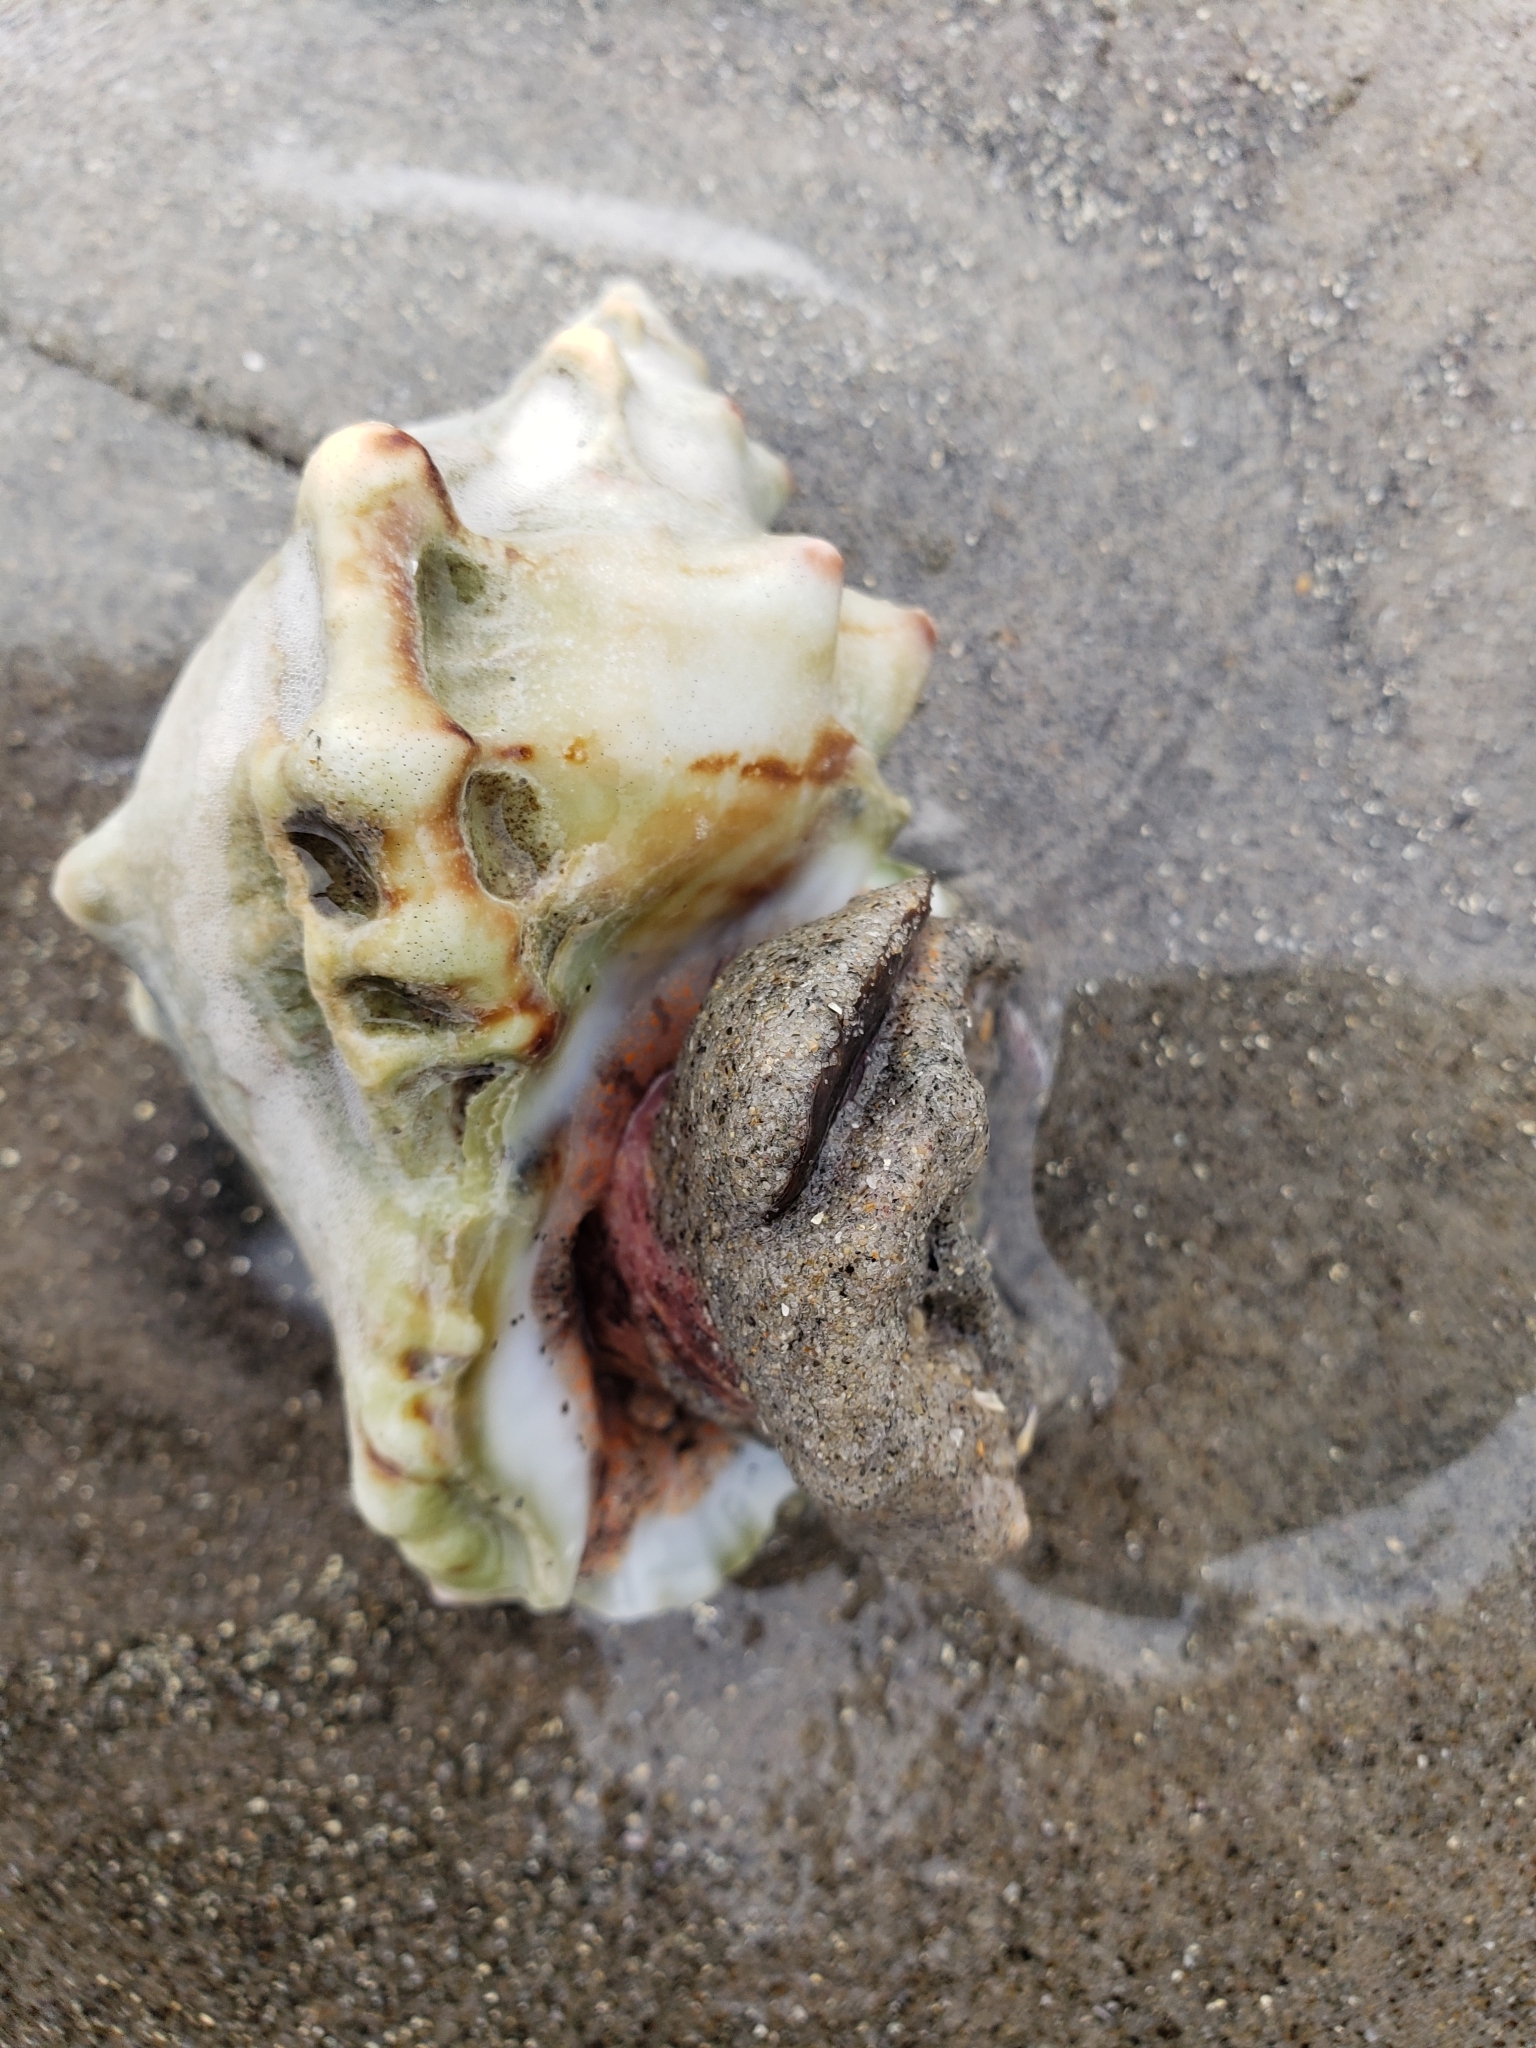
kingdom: Animalia
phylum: Mollusca
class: Gastropoda
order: Littorinimorpha
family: Bursidae
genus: Crossata
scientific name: Crossata californica
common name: California frogsnail
